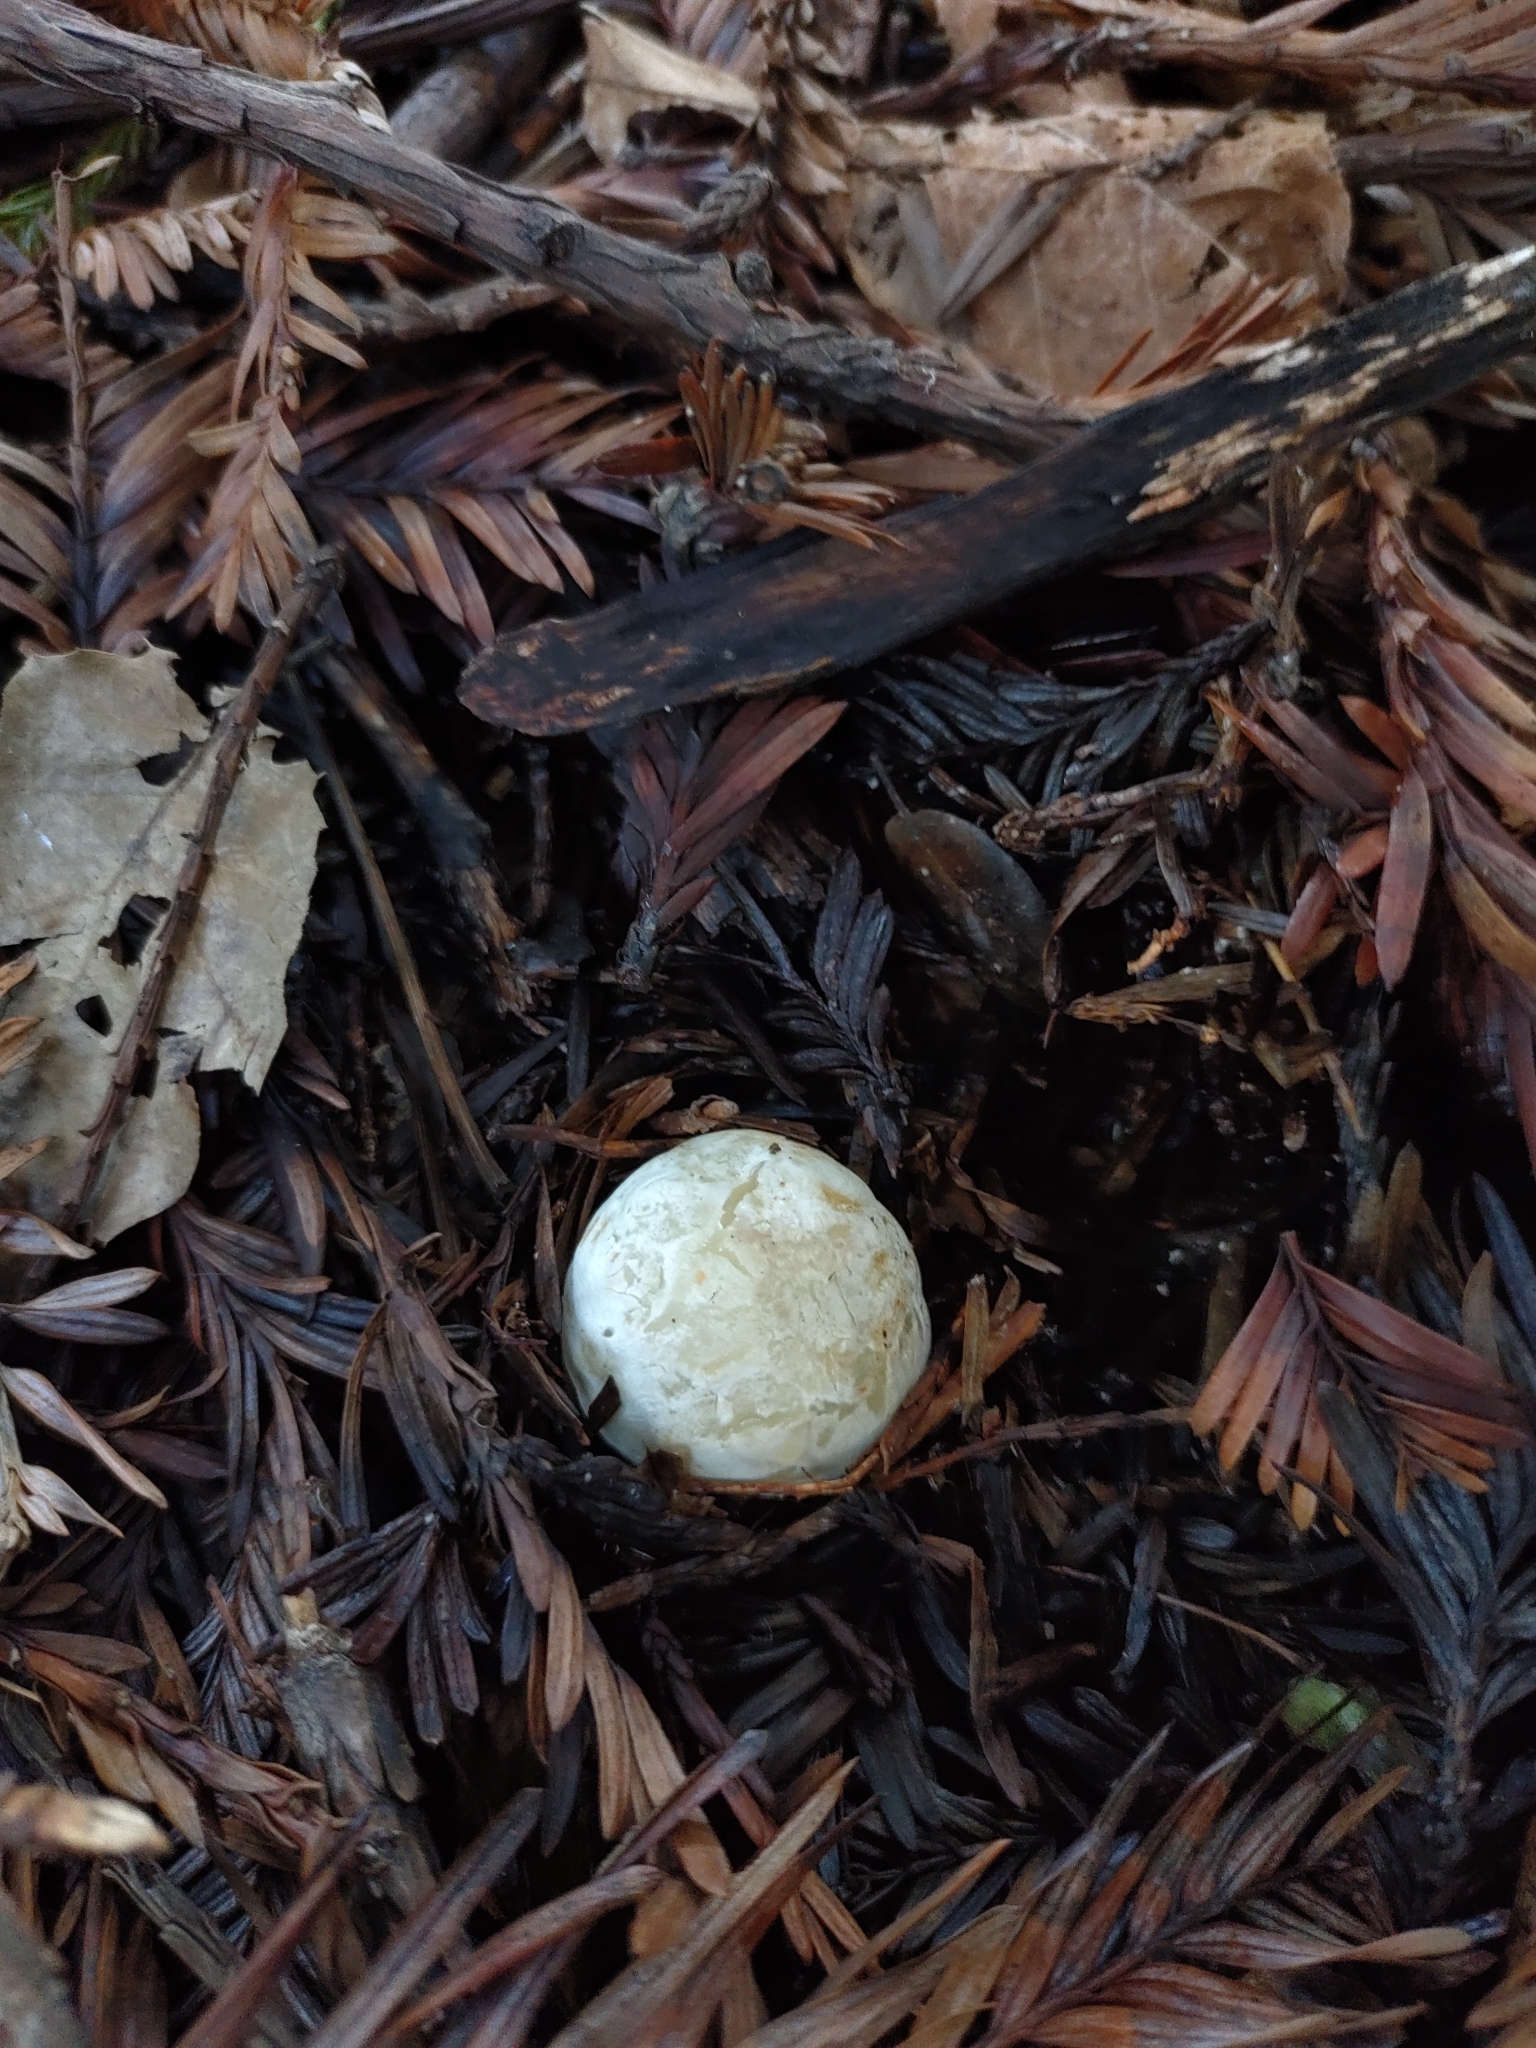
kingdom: Fungi
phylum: Basidiomycota
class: Agaricomycetes
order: Phallales
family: Phallaceae
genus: Clathrus
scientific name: Clathrus ruber
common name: Red cage
